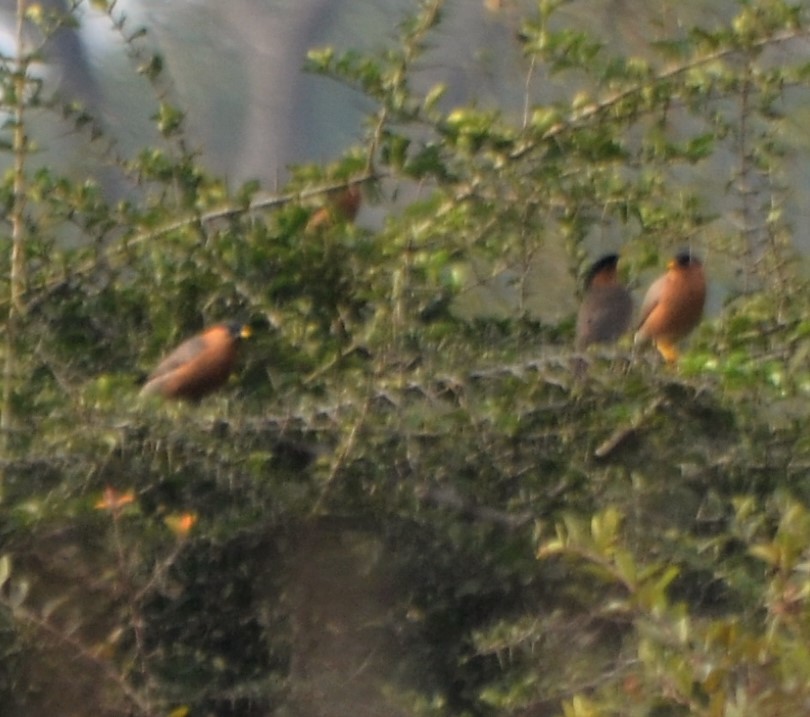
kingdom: Animalia
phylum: Chordata
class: Aves
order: Passeriformes
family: Sturnidae
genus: Sturnia
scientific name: Sturnia pagodarum
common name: Brahminy starling
